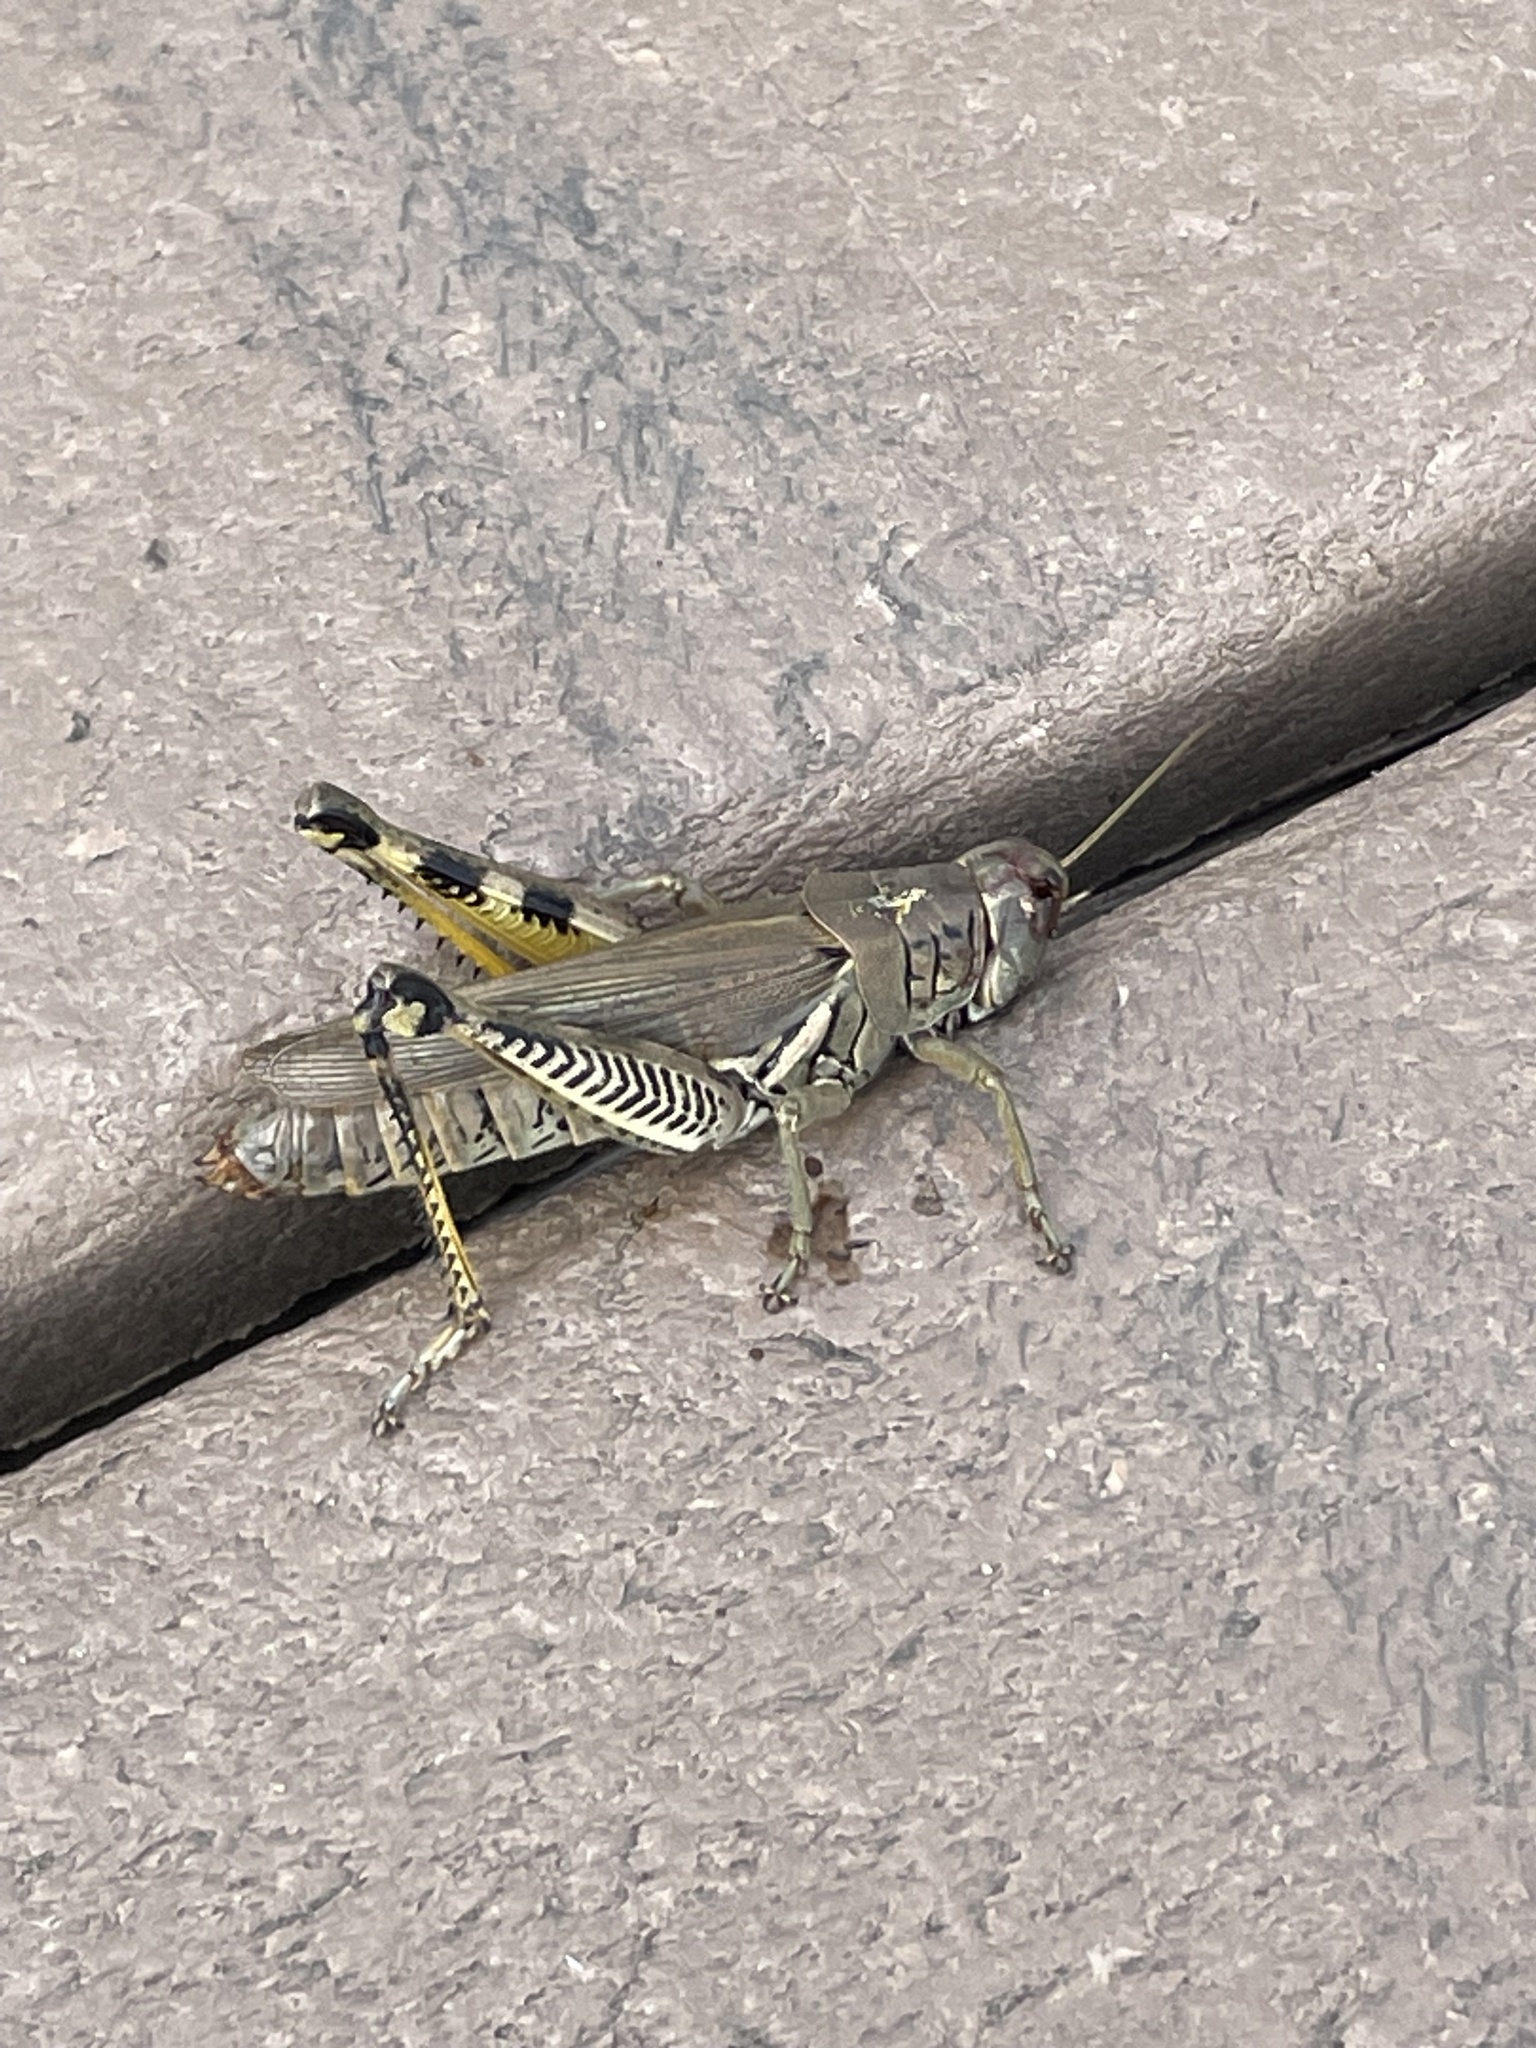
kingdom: Animalia
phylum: Arthropoda
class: Insecta
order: Orthoptera
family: Acrididae
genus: Melanoplus
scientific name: Melanoplus differentialis
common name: Differential grasshopper
